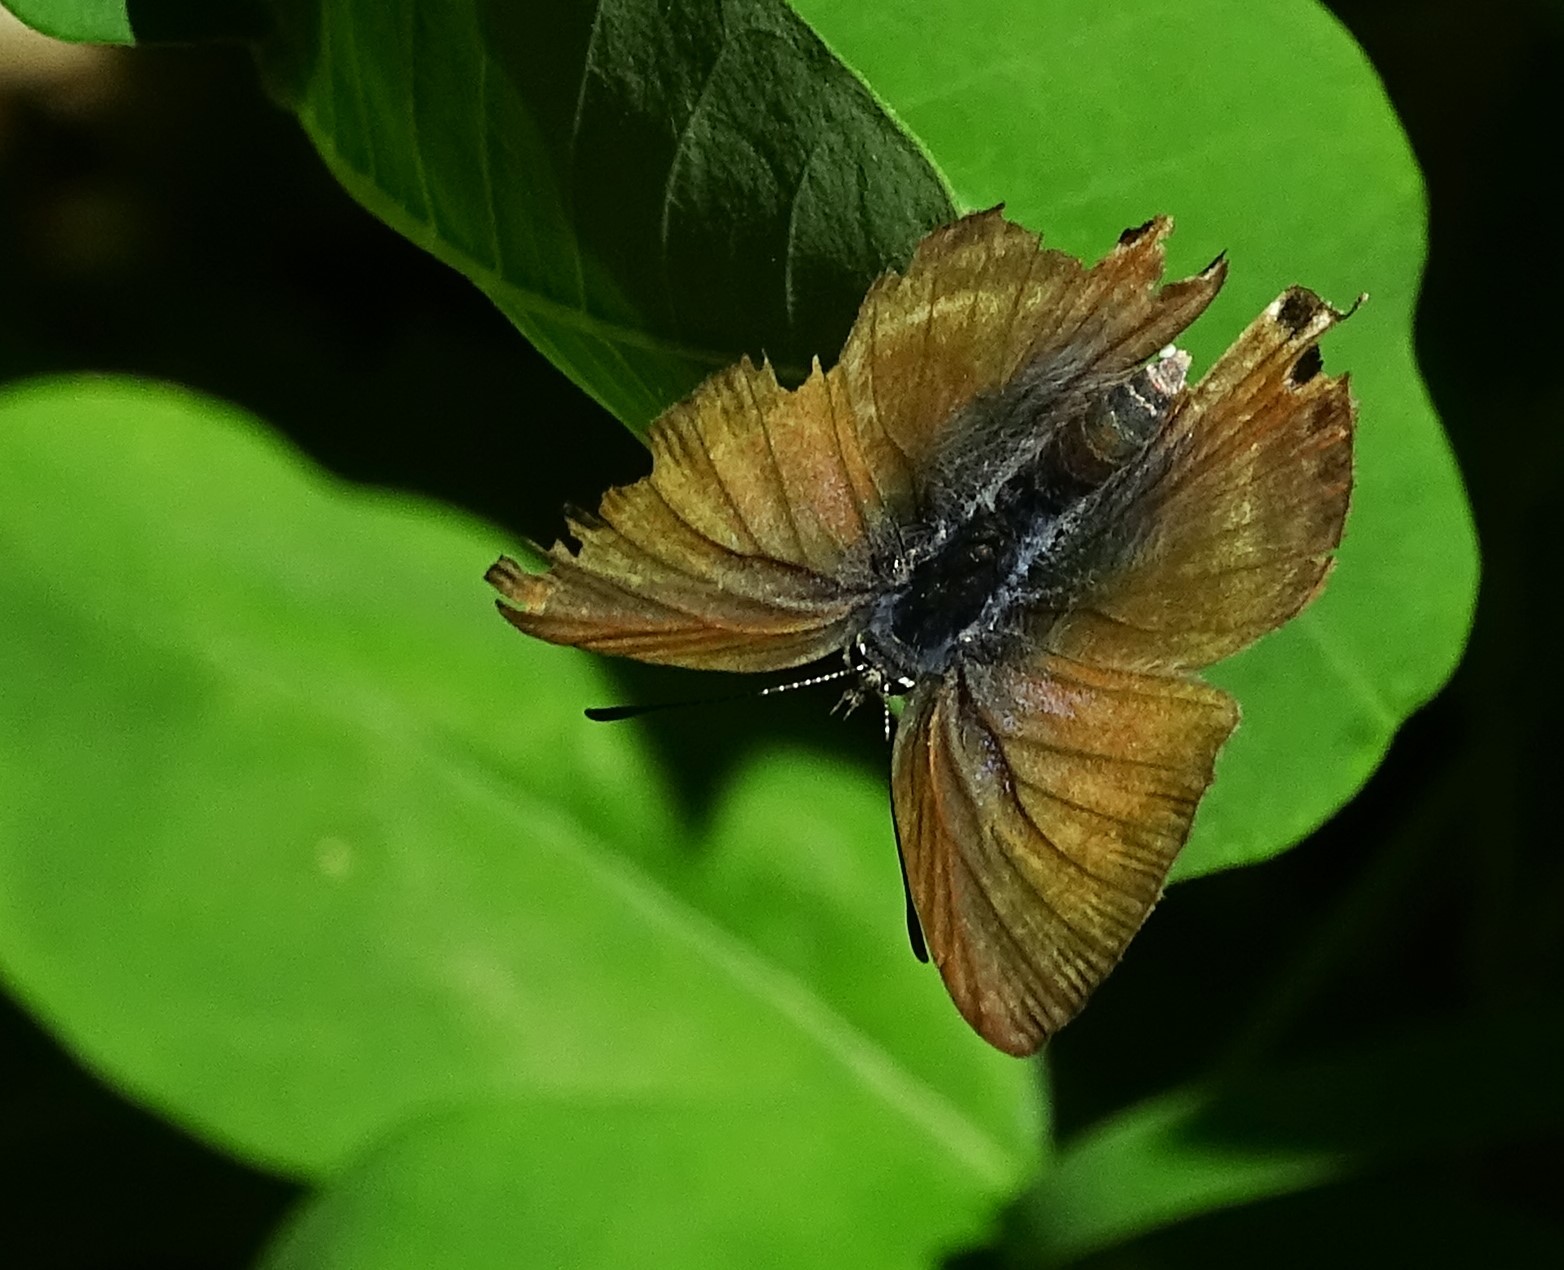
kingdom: Animalia
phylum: Arthropoda
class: Insecta
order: Lepidoptera
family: Lycaenidae
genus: Lampides
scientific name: Lampides boeticus
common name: Long-tailed blue
